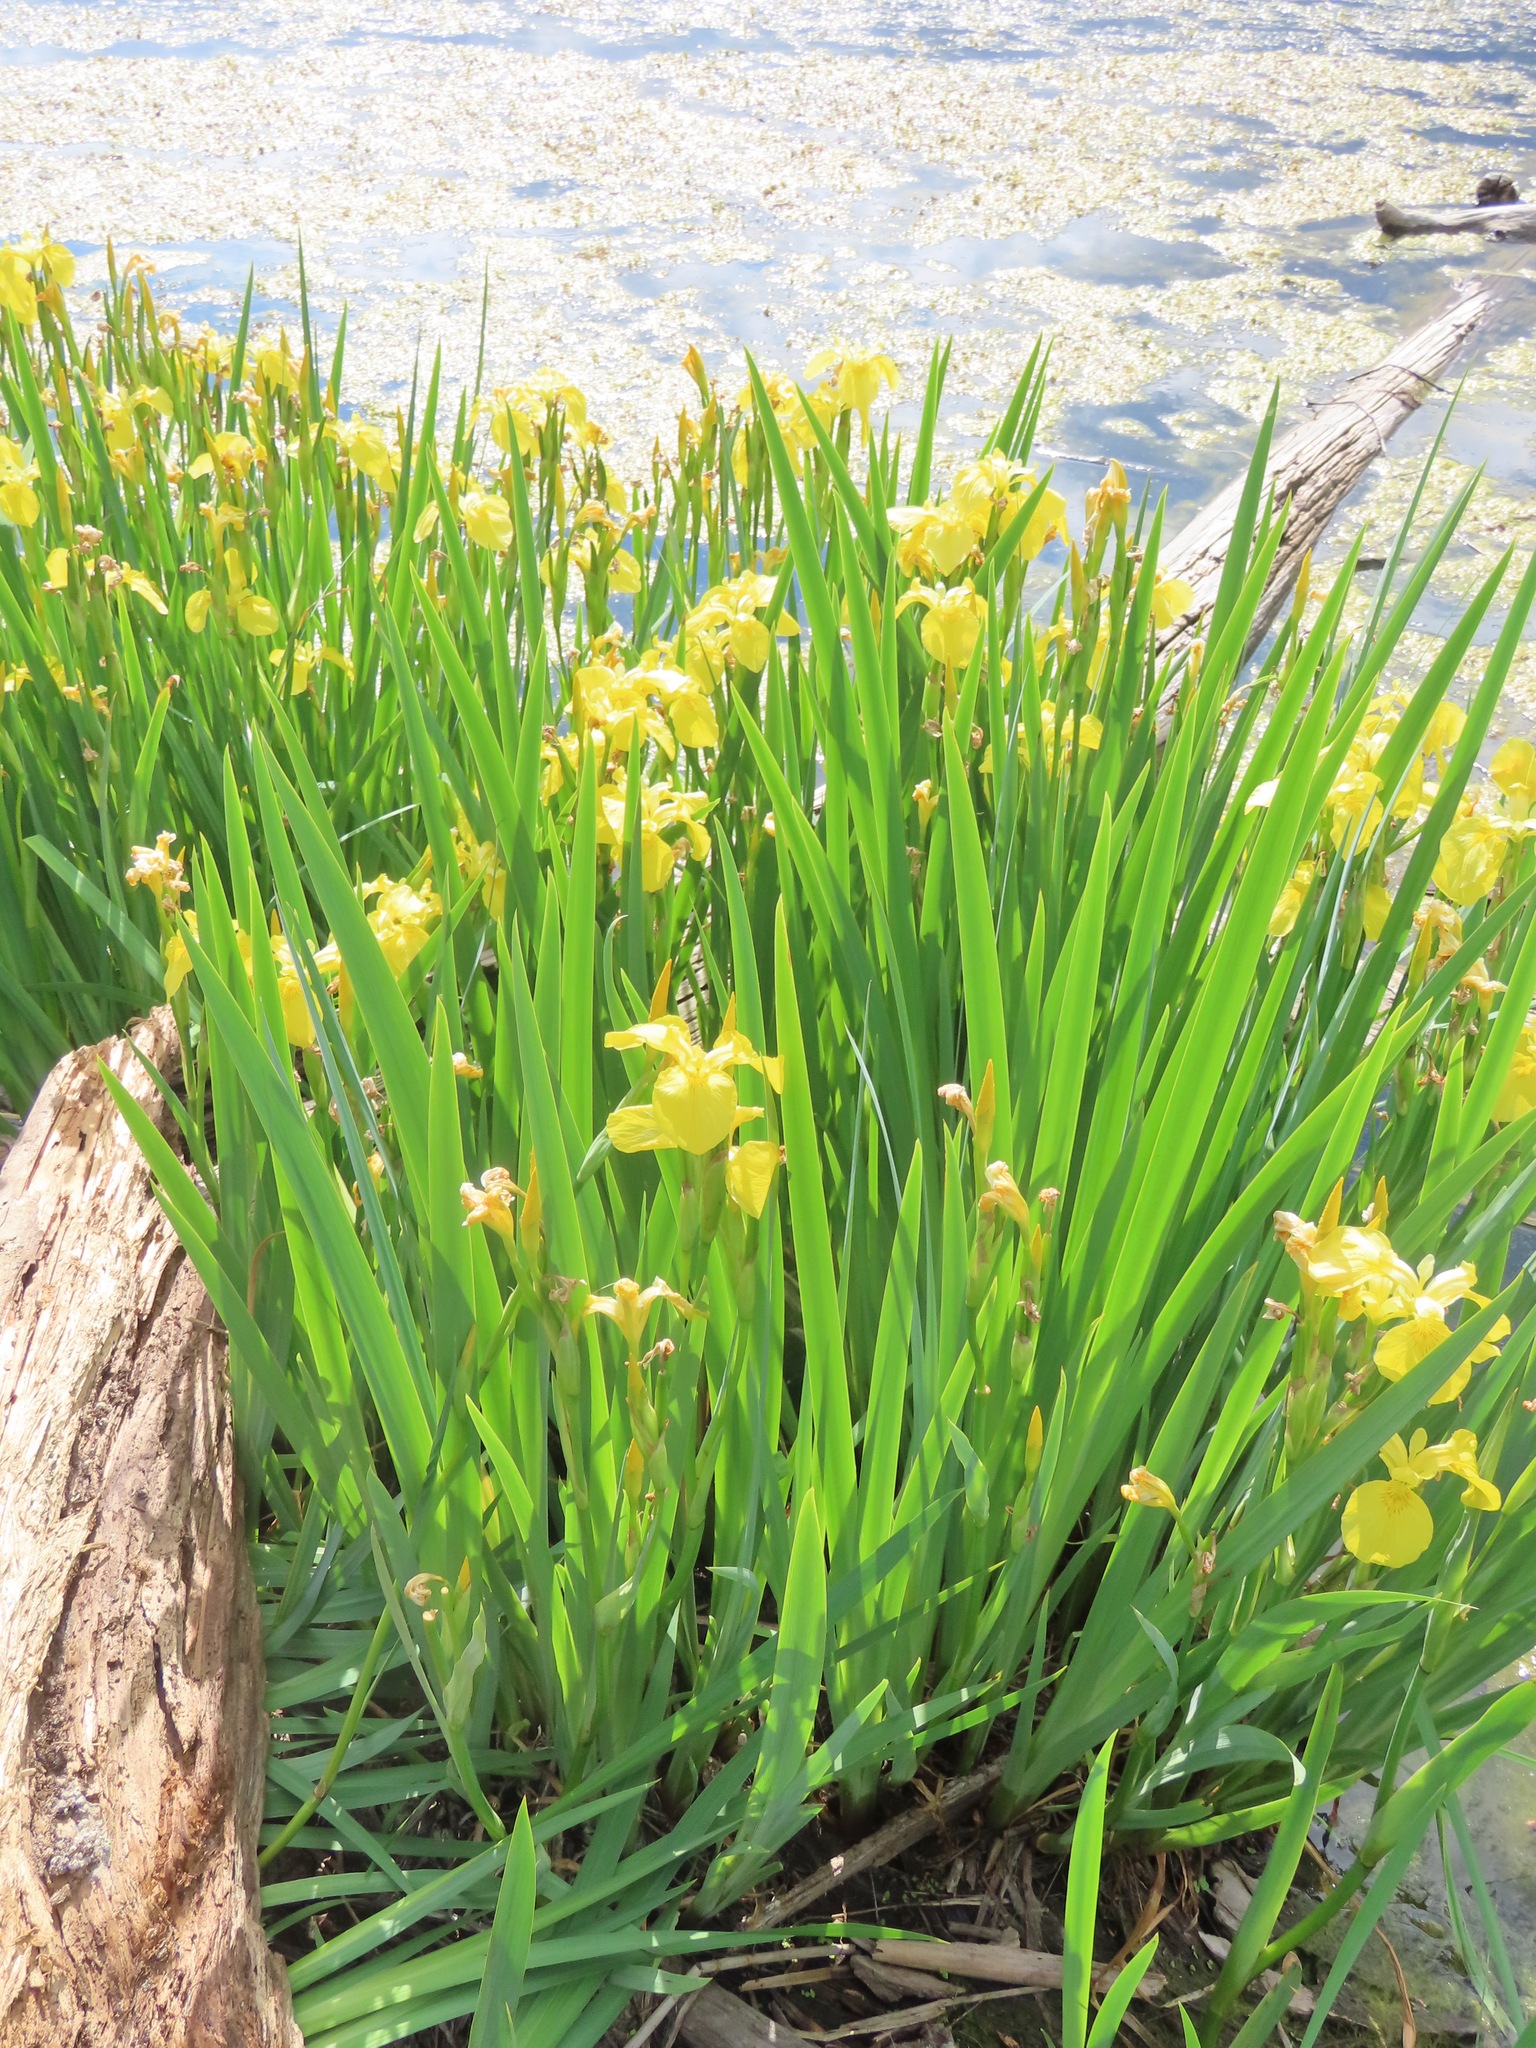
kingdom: Plantae
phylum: Tracheophyta
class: Liliopsida
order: Asparagales
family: Iridaceae
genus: Iris
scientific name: Iris pseudacorus
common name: Yellow flag
